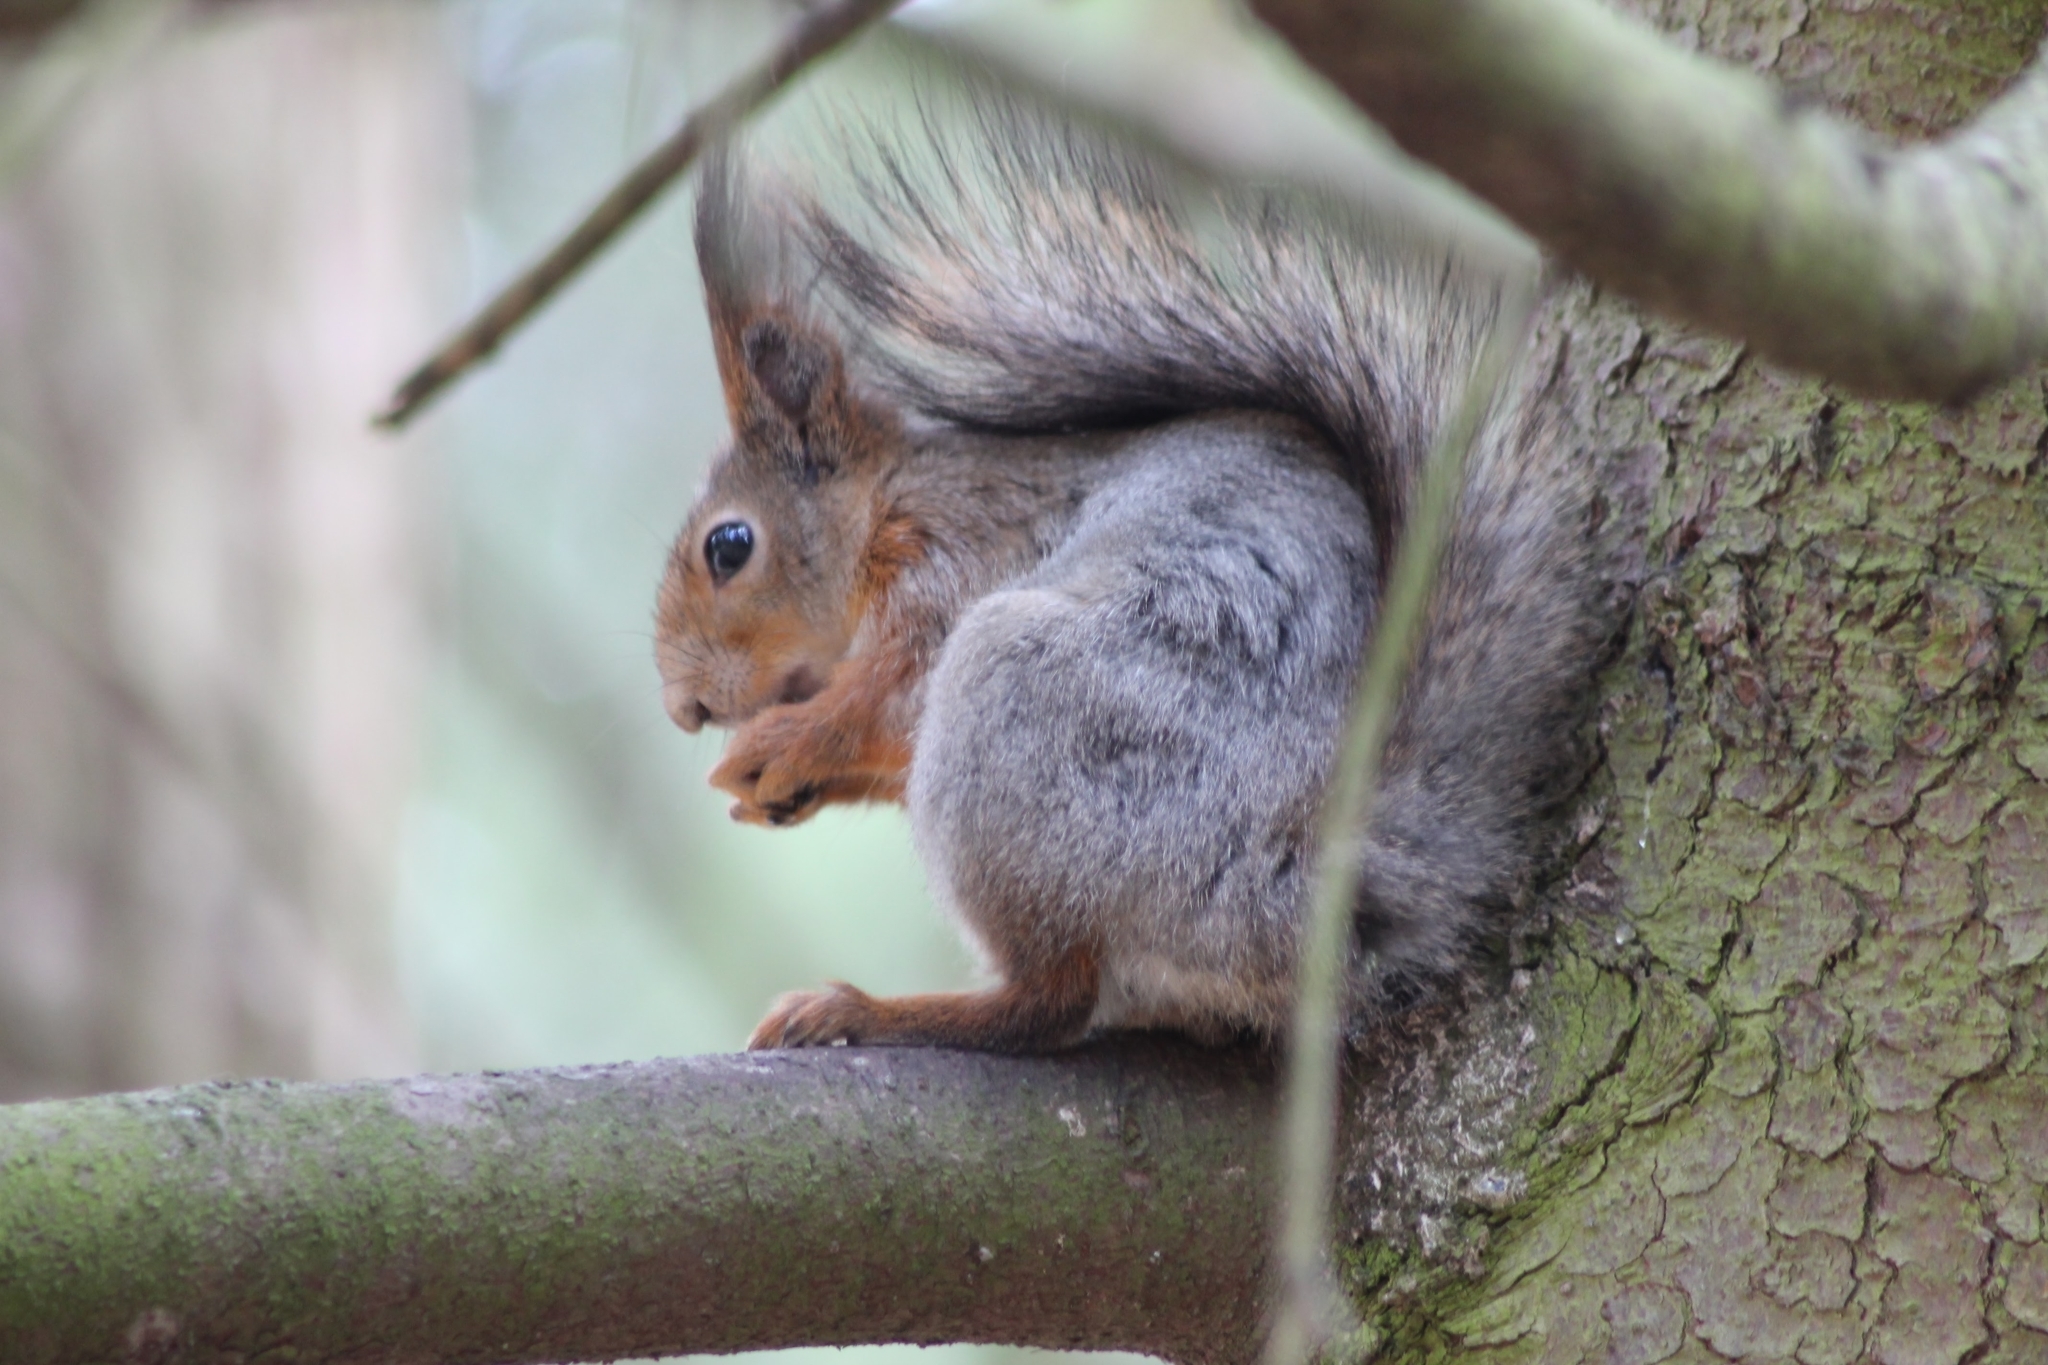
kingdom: Animalia
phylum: Chordata
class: Mammalia
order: Rodentia
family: Sciuridae
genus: Sciurus
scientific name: Sciurus vulgaris
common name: Eurasian red squirrel
